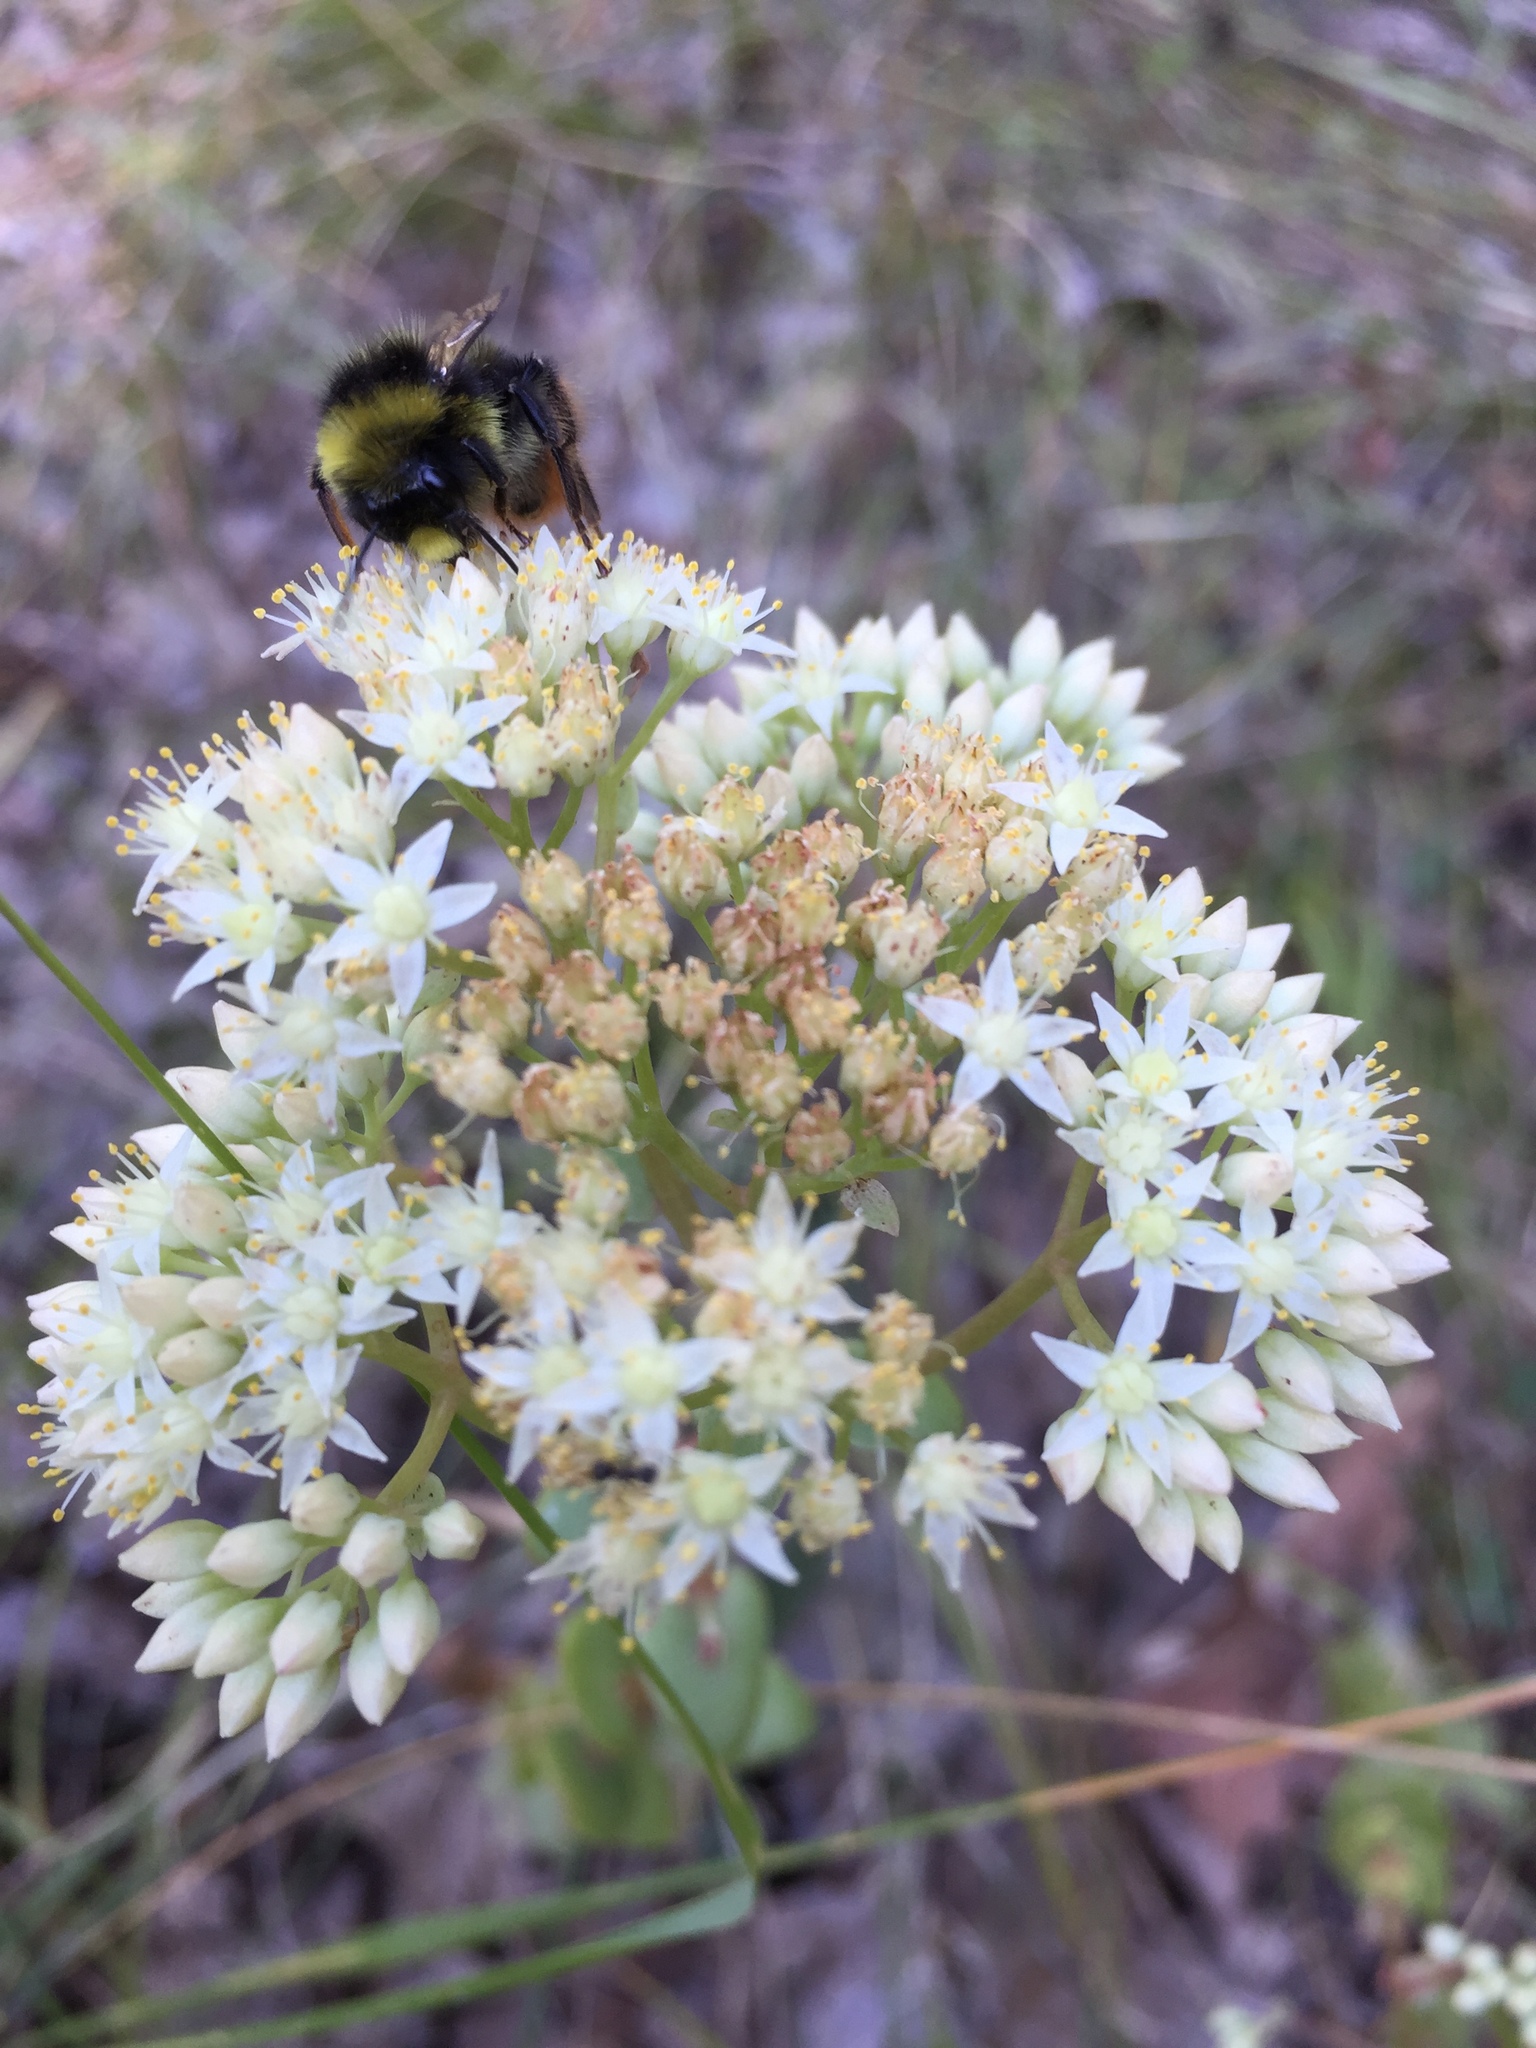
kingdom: Animalia
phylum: Arthropoda
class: Insecta
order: Hymenoptera
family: Apidae
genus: Bombus
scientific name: Bombus
